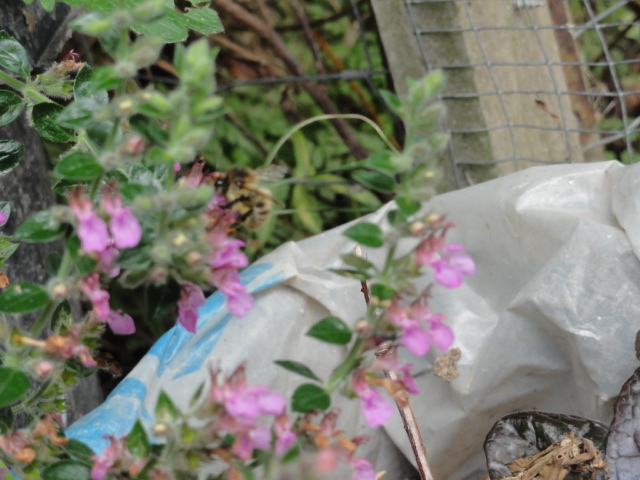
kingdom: Animalia
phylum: Arthropoda
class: Insecta
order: Hymenoptera
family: Apidae
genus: Bombus
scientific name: Bombus pascuorum
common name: Common carder bee
